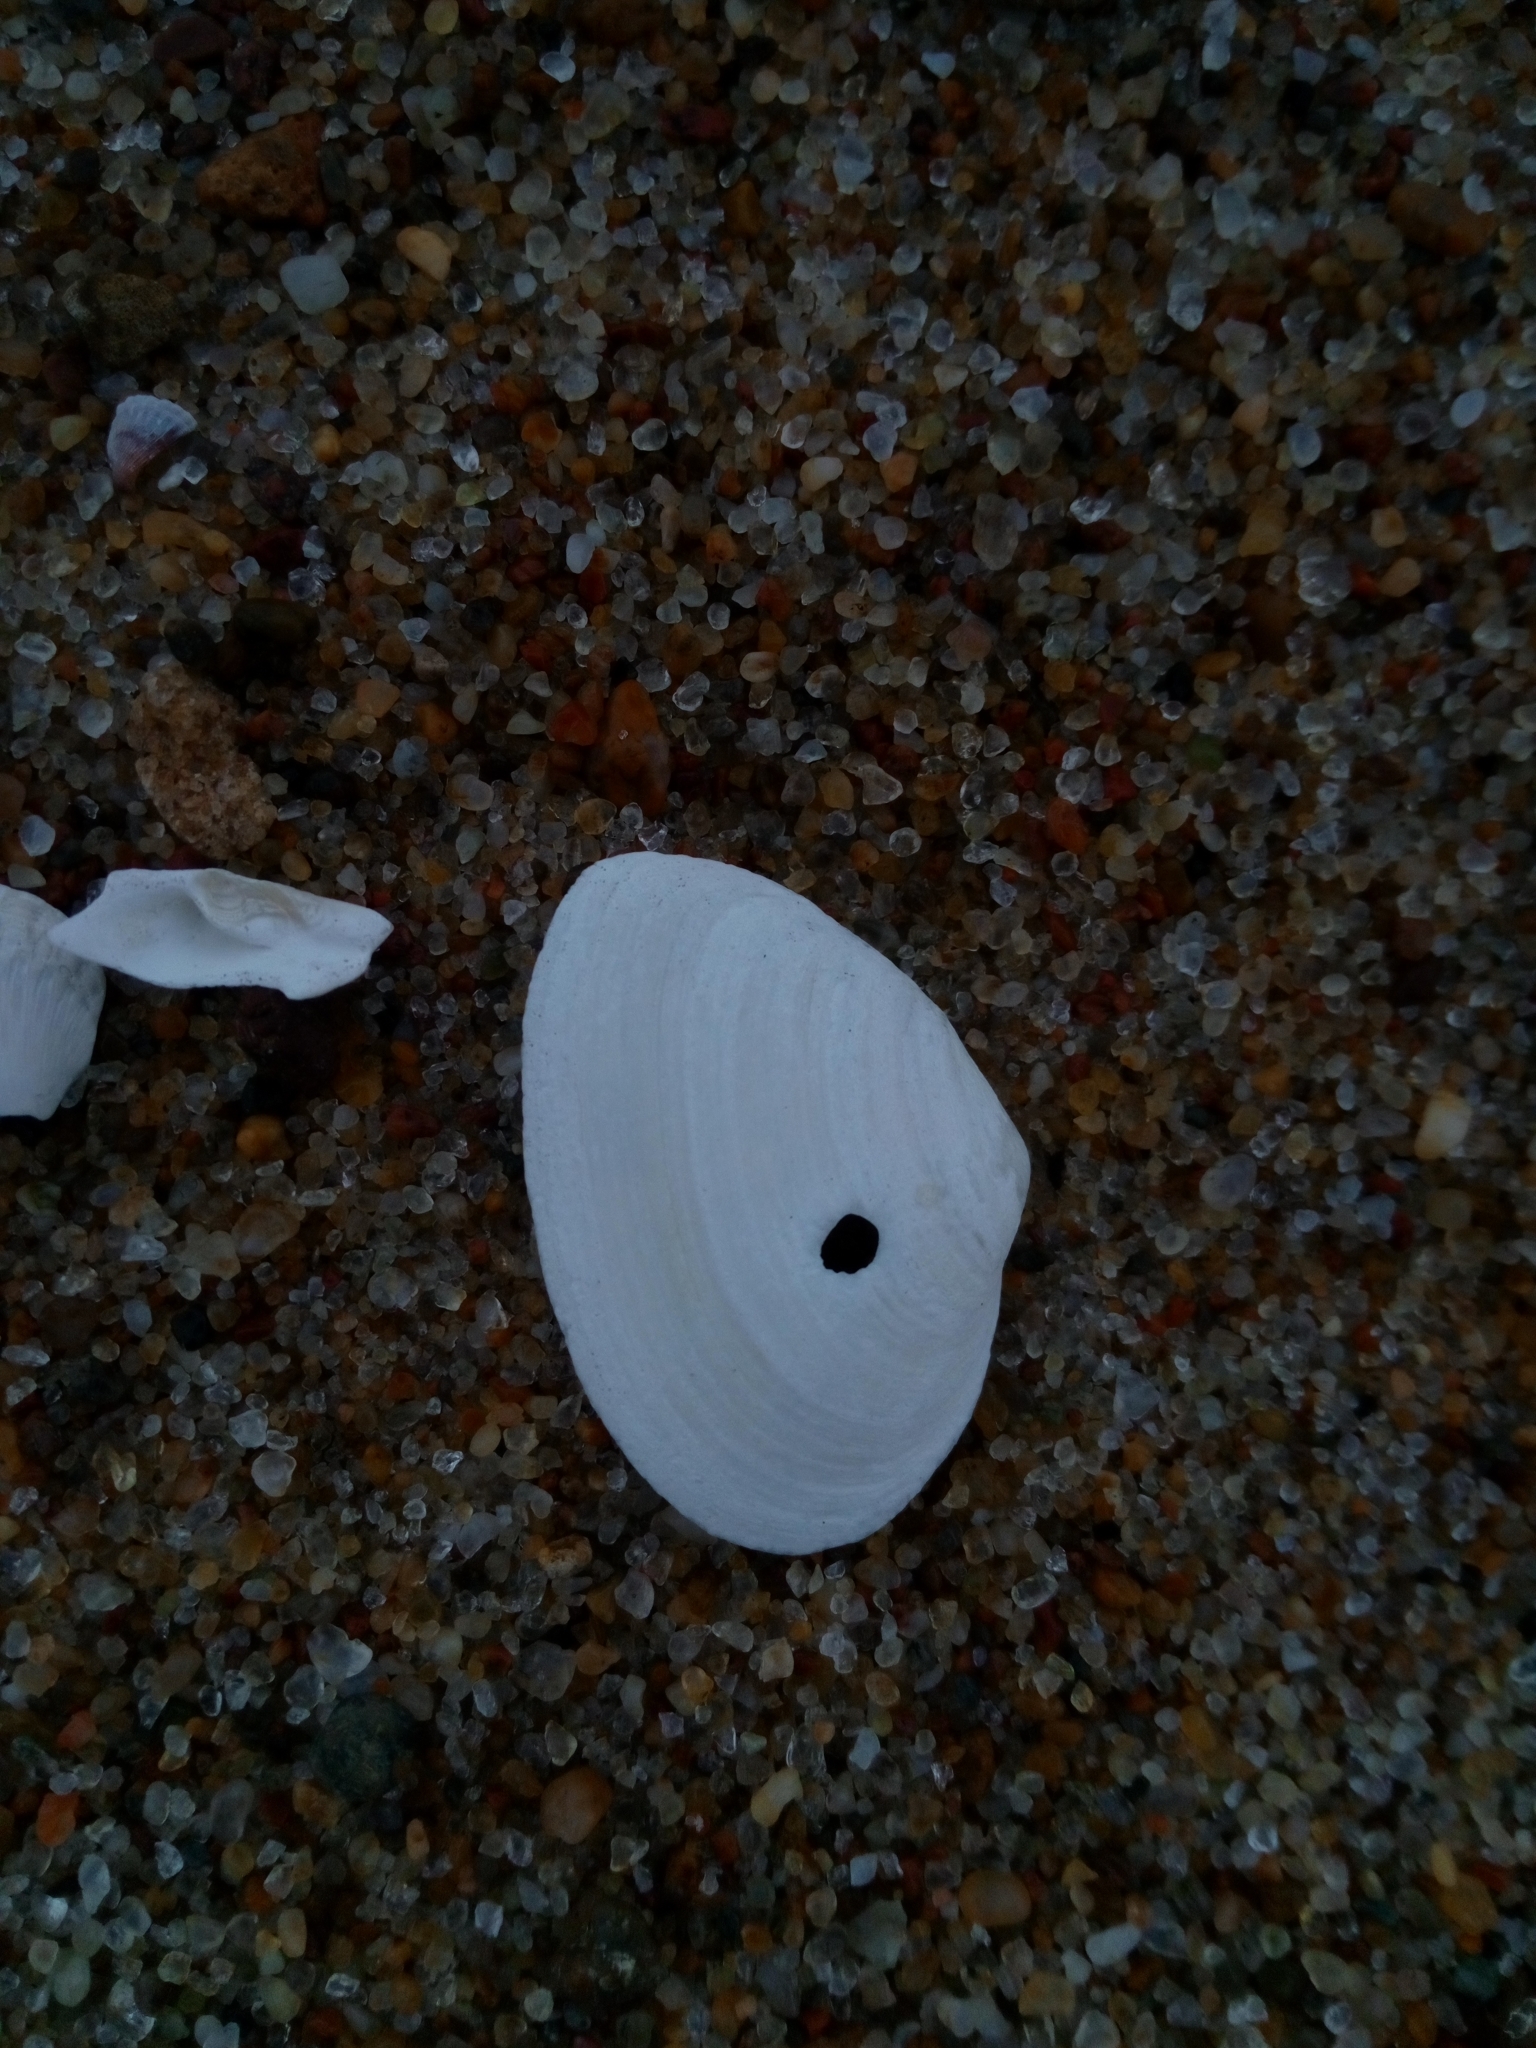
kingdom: Animalia
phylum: Mollusca
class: Bivalvia
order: Myida
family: Myidae
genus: Mya
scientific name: Mya arenaria
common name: Soft-shelled clam
